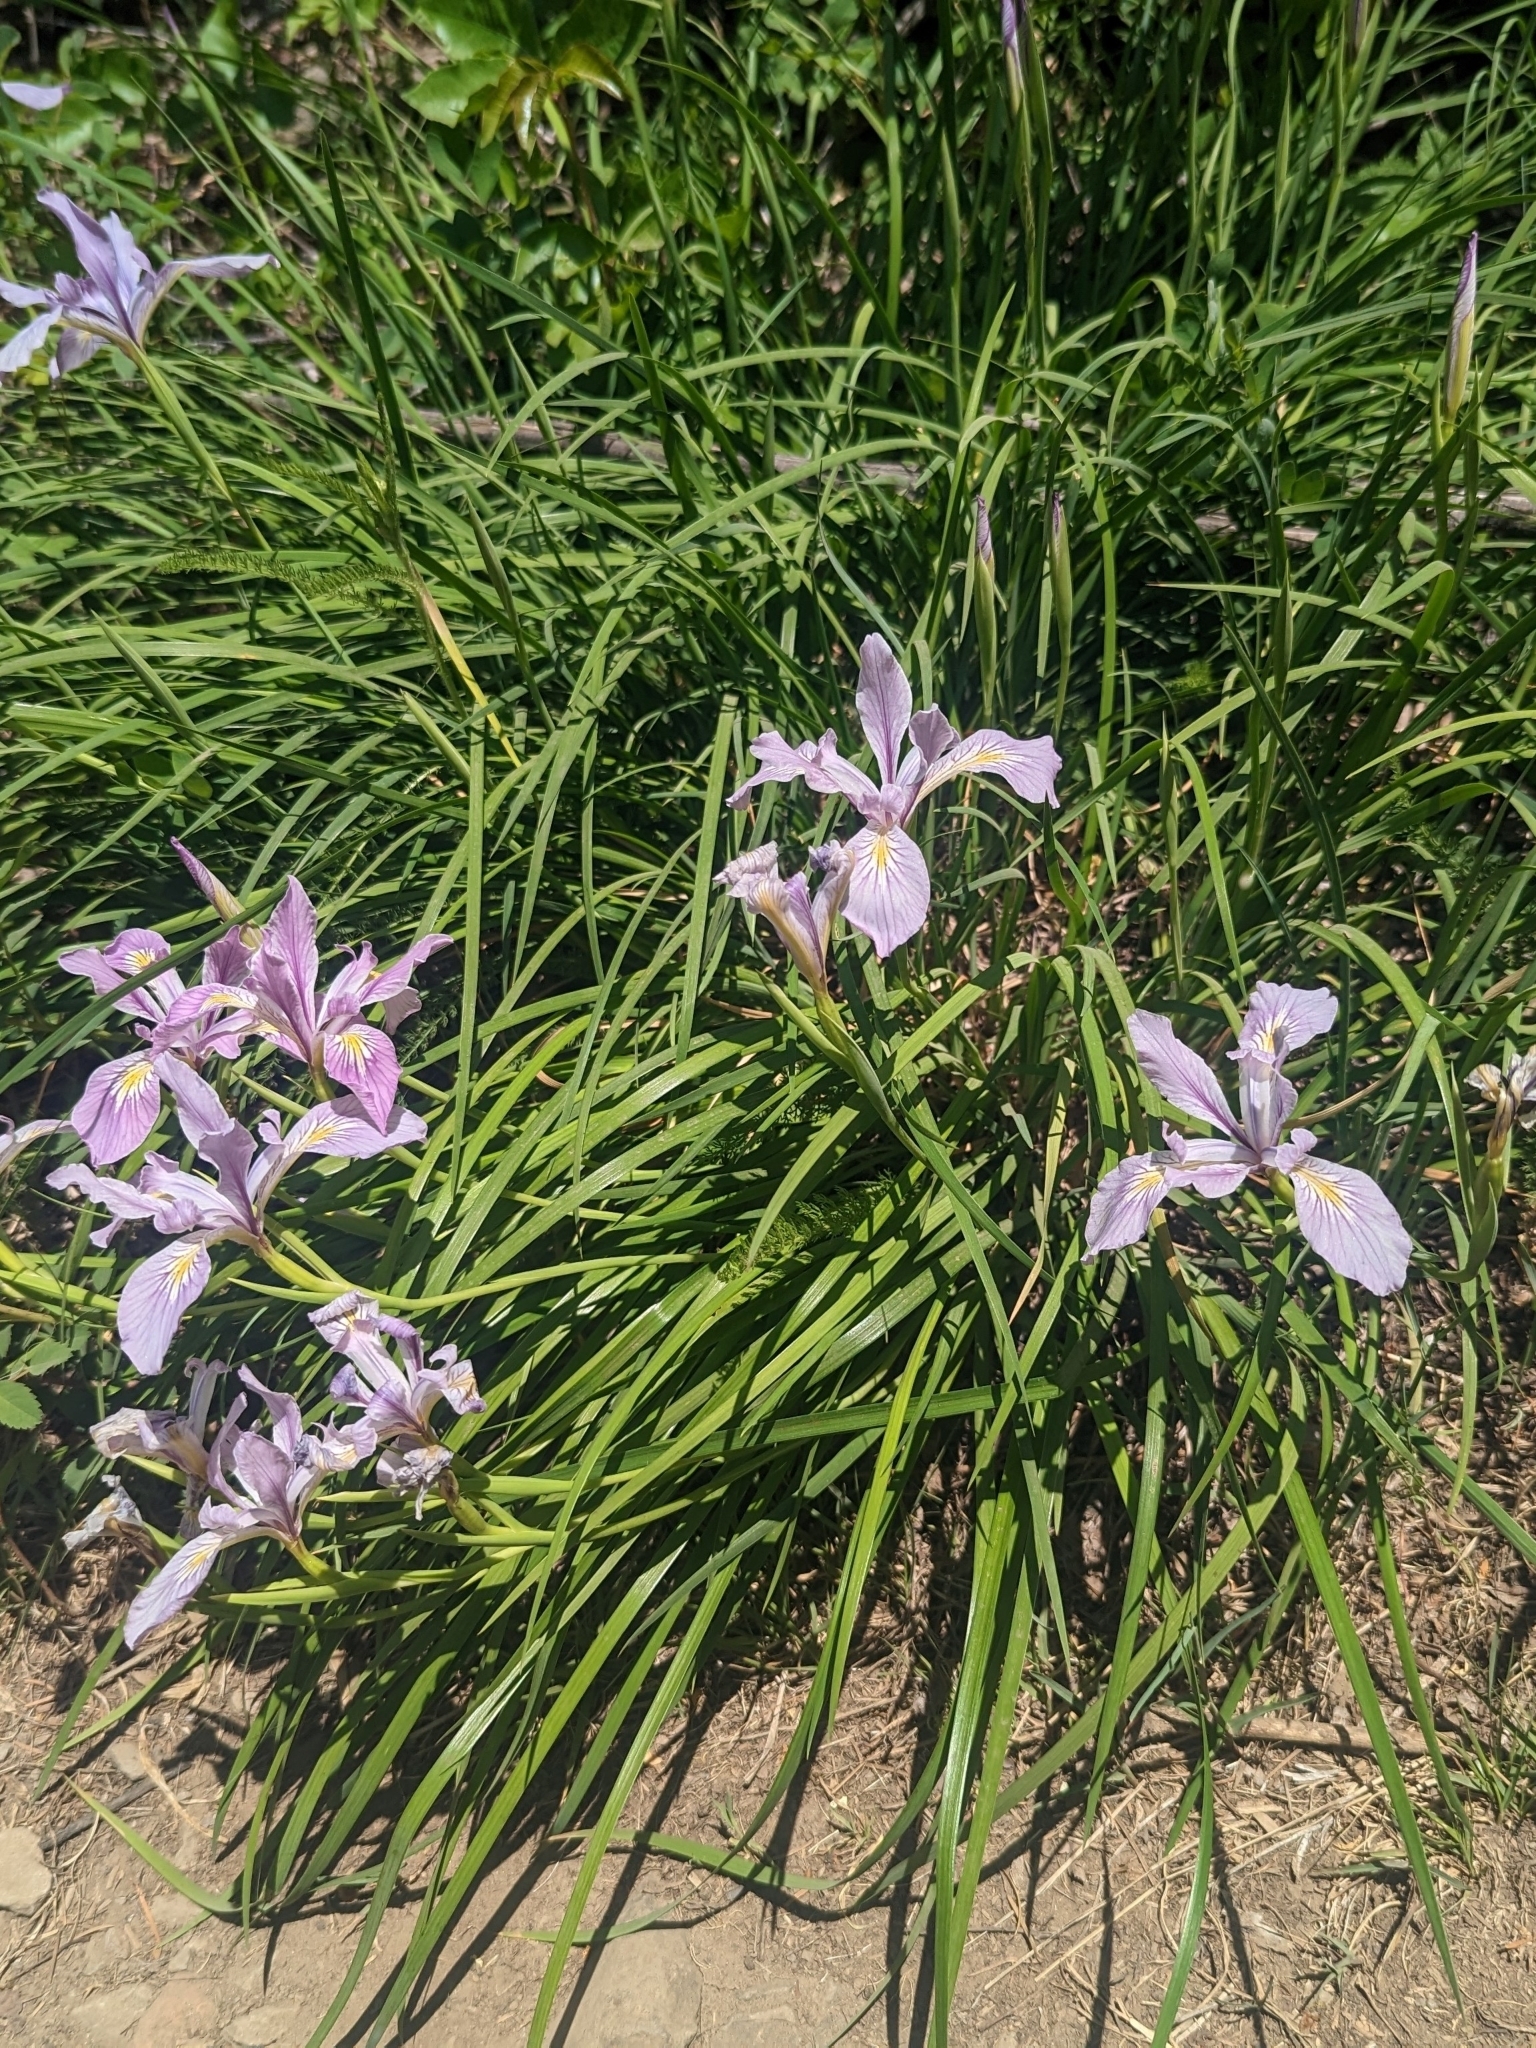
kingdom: Plantae
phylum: Tracheophyta
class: Liliopsida
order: Asparagales
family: Iridaceae
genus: Iris
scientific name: Iris tenax
